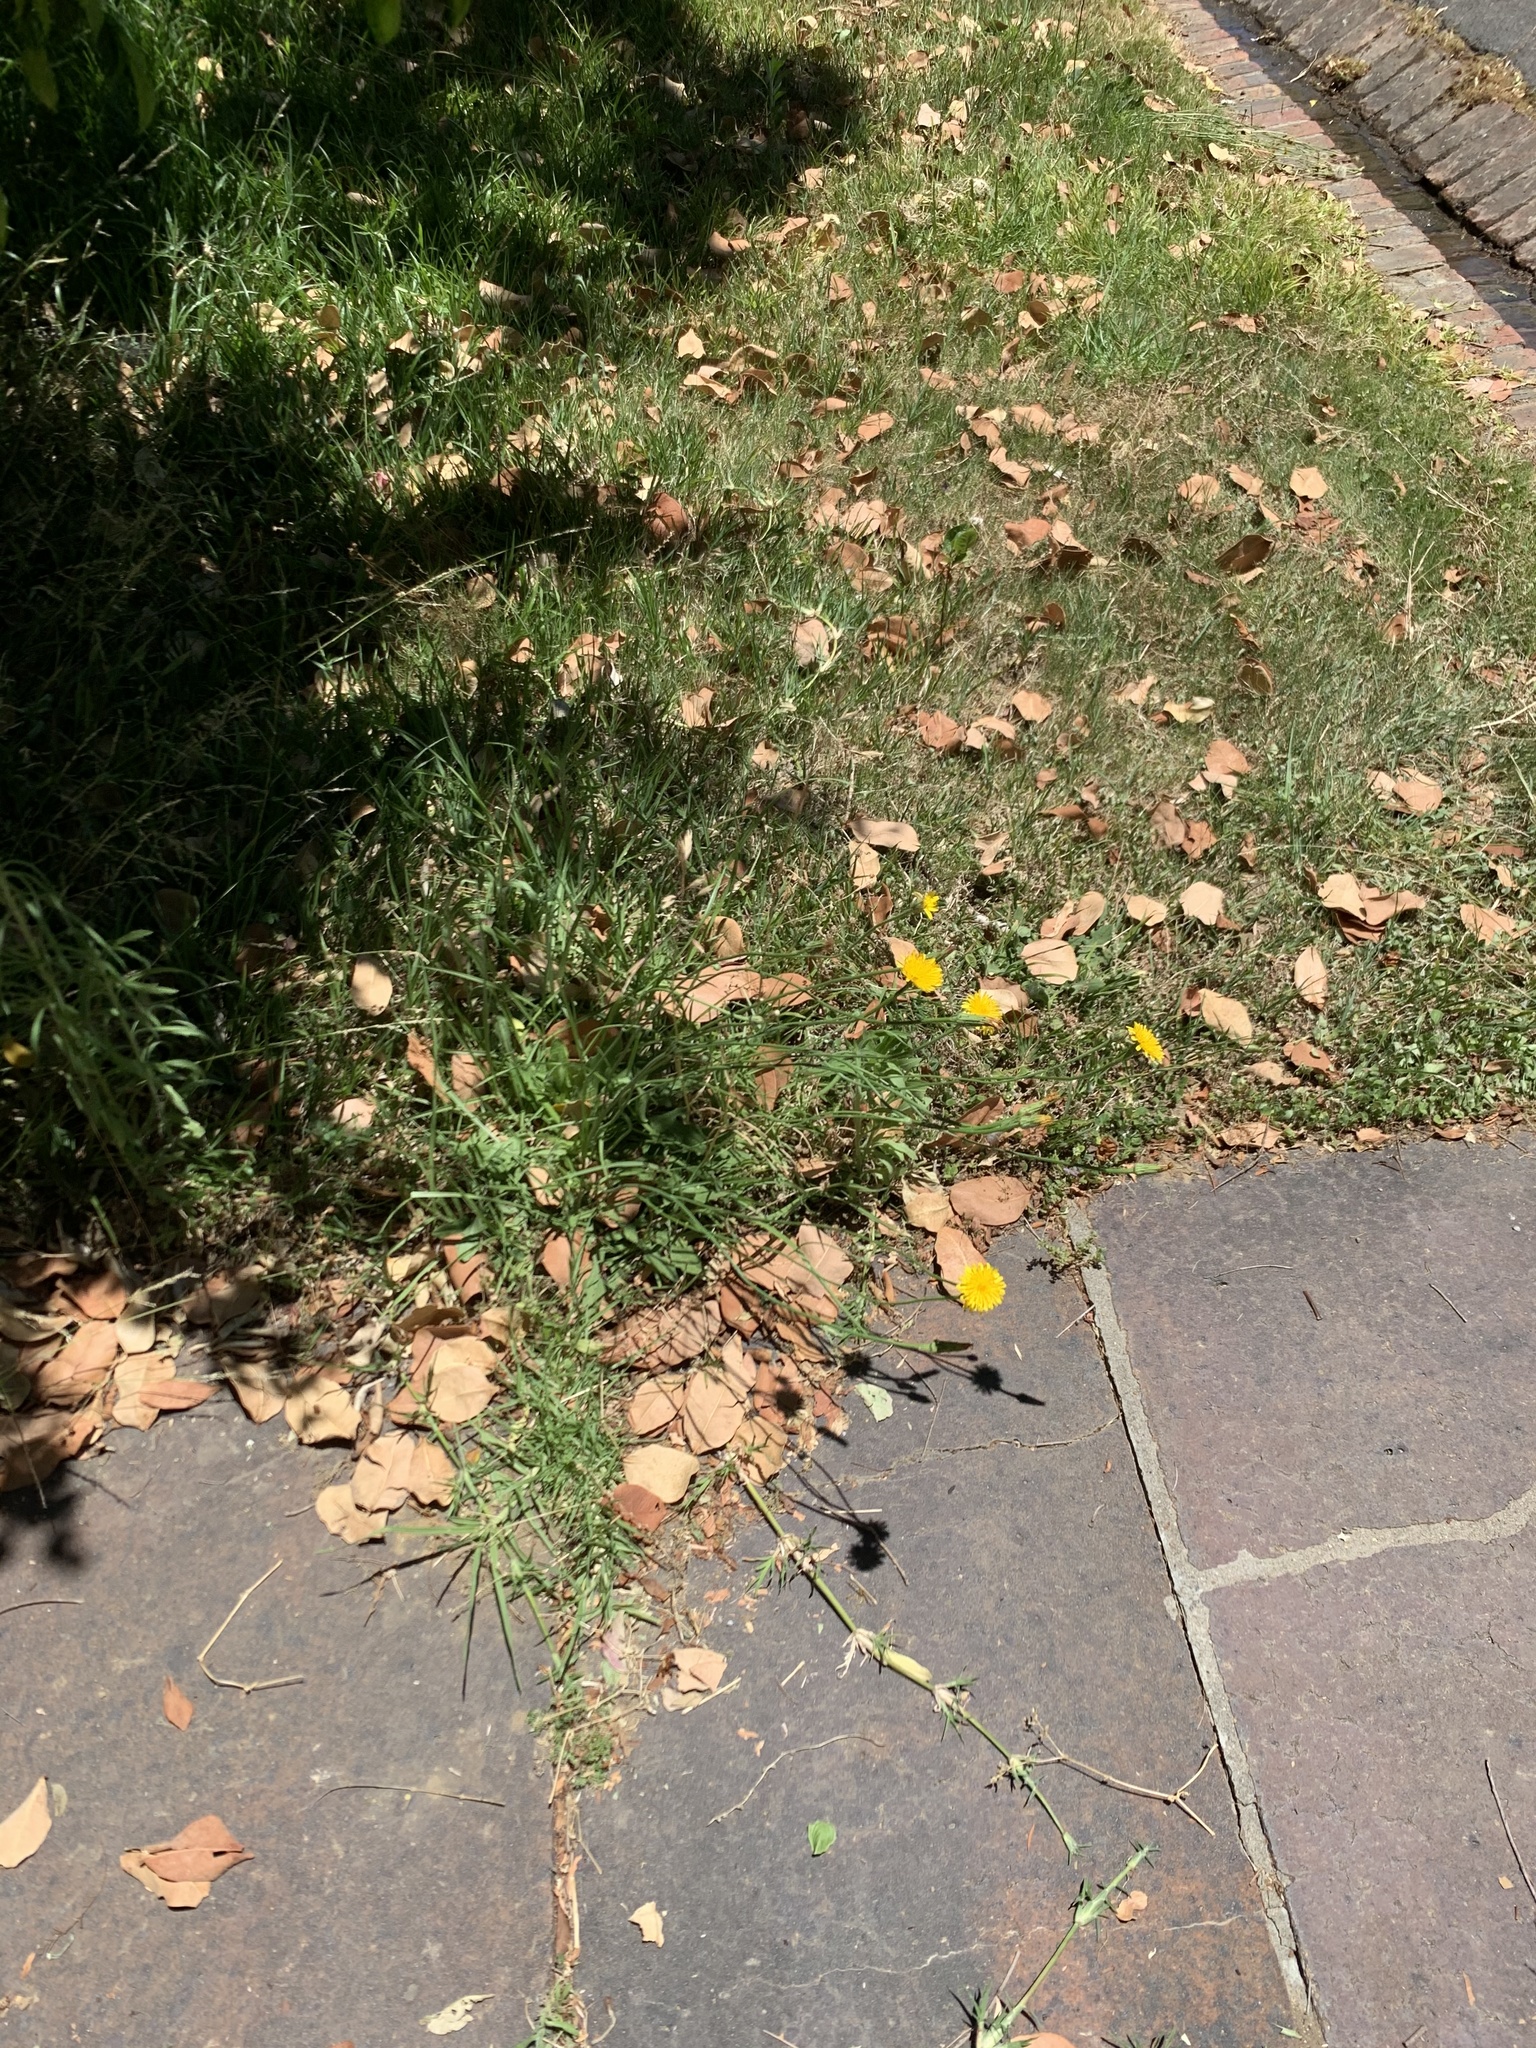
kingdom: Plantae
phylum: Tracheophyta
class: Magnoliopsida
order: Asterales
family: Asteraceae
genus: Hypochaeris
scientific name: Hypochaeris radicata
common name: Flatweed
